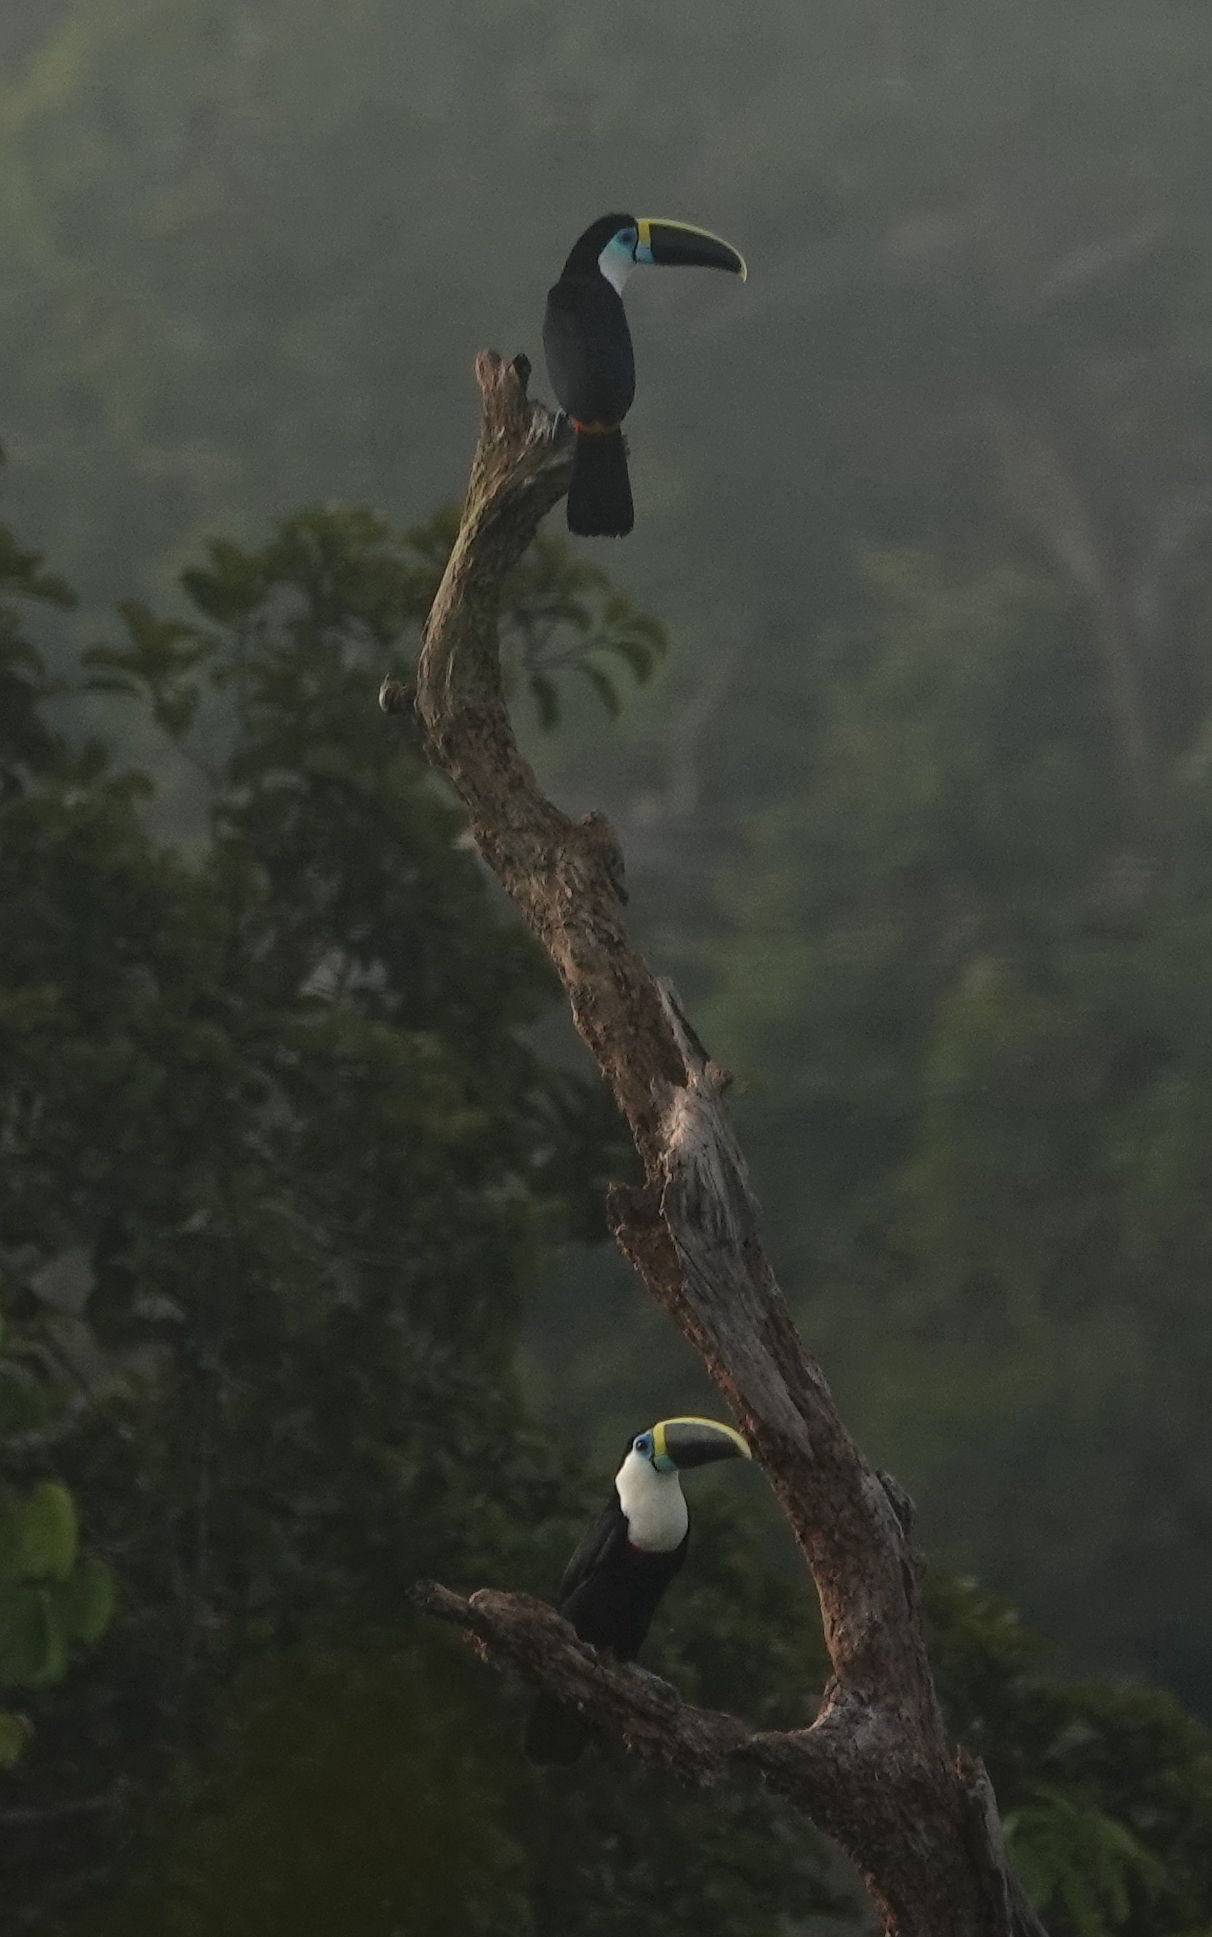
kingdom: Animalia
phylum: Chordata
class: Aves
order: Piciformes
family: Ramphastidae
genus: Ramphastos
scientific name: Ramphastos tucanus
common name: White-throated toucan
